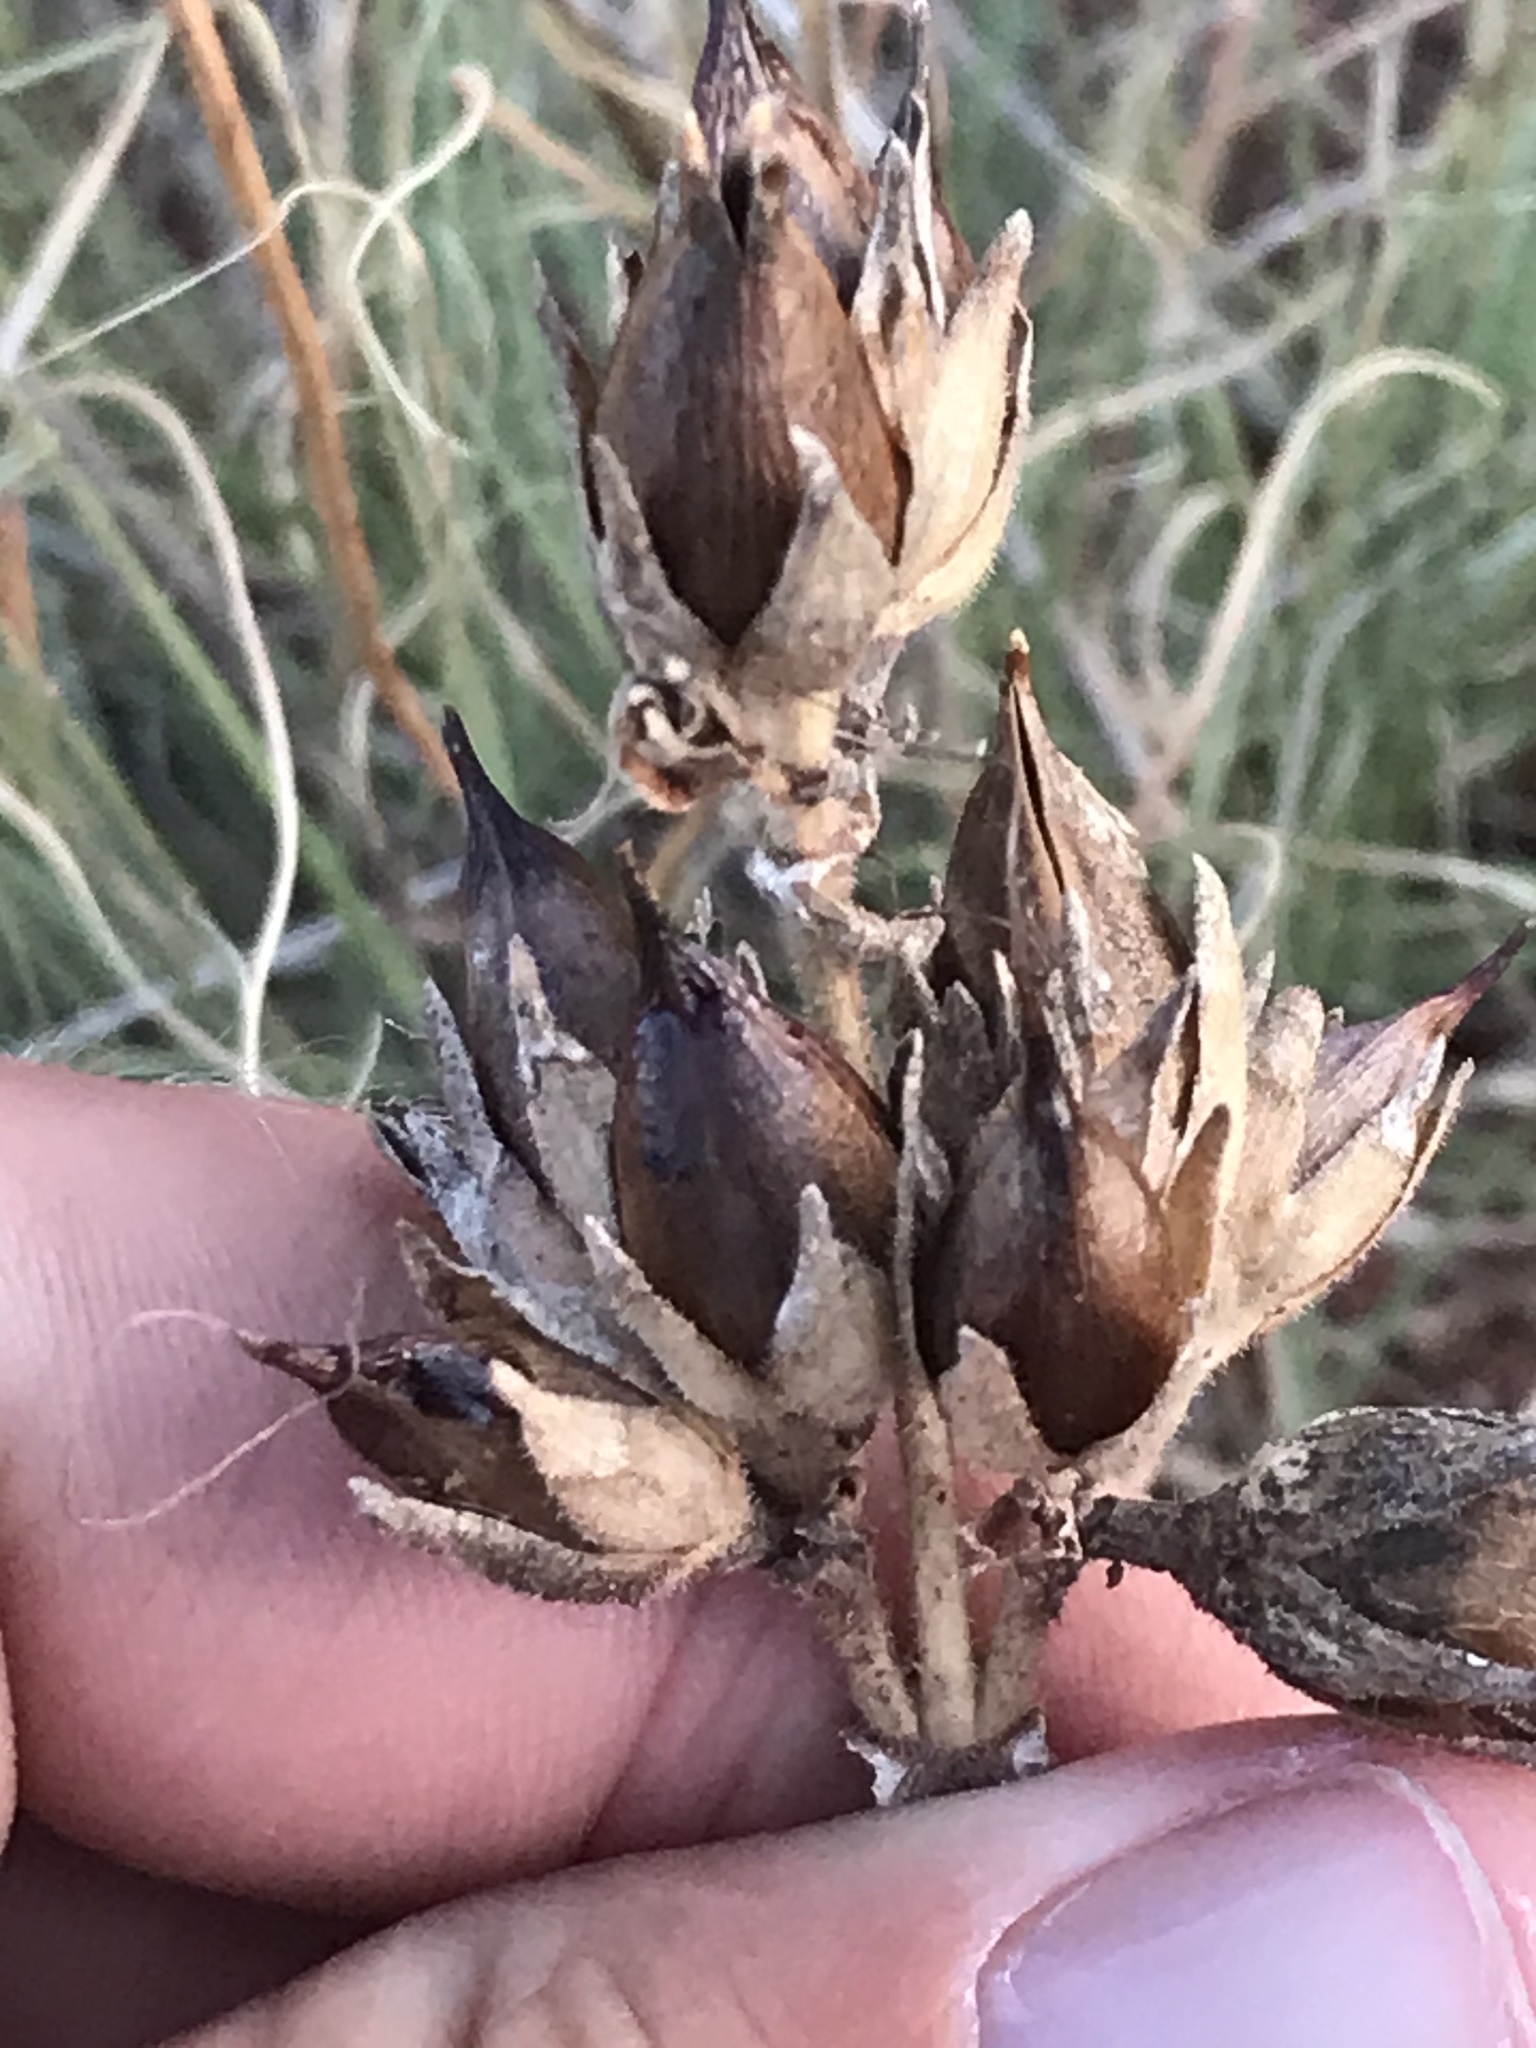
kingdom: Plantae
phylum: Tracheophyta
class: Magnoliopsida
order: Lamiales
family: Plantaginaceae
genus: Penstemon
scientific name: Penstemon cobaea
